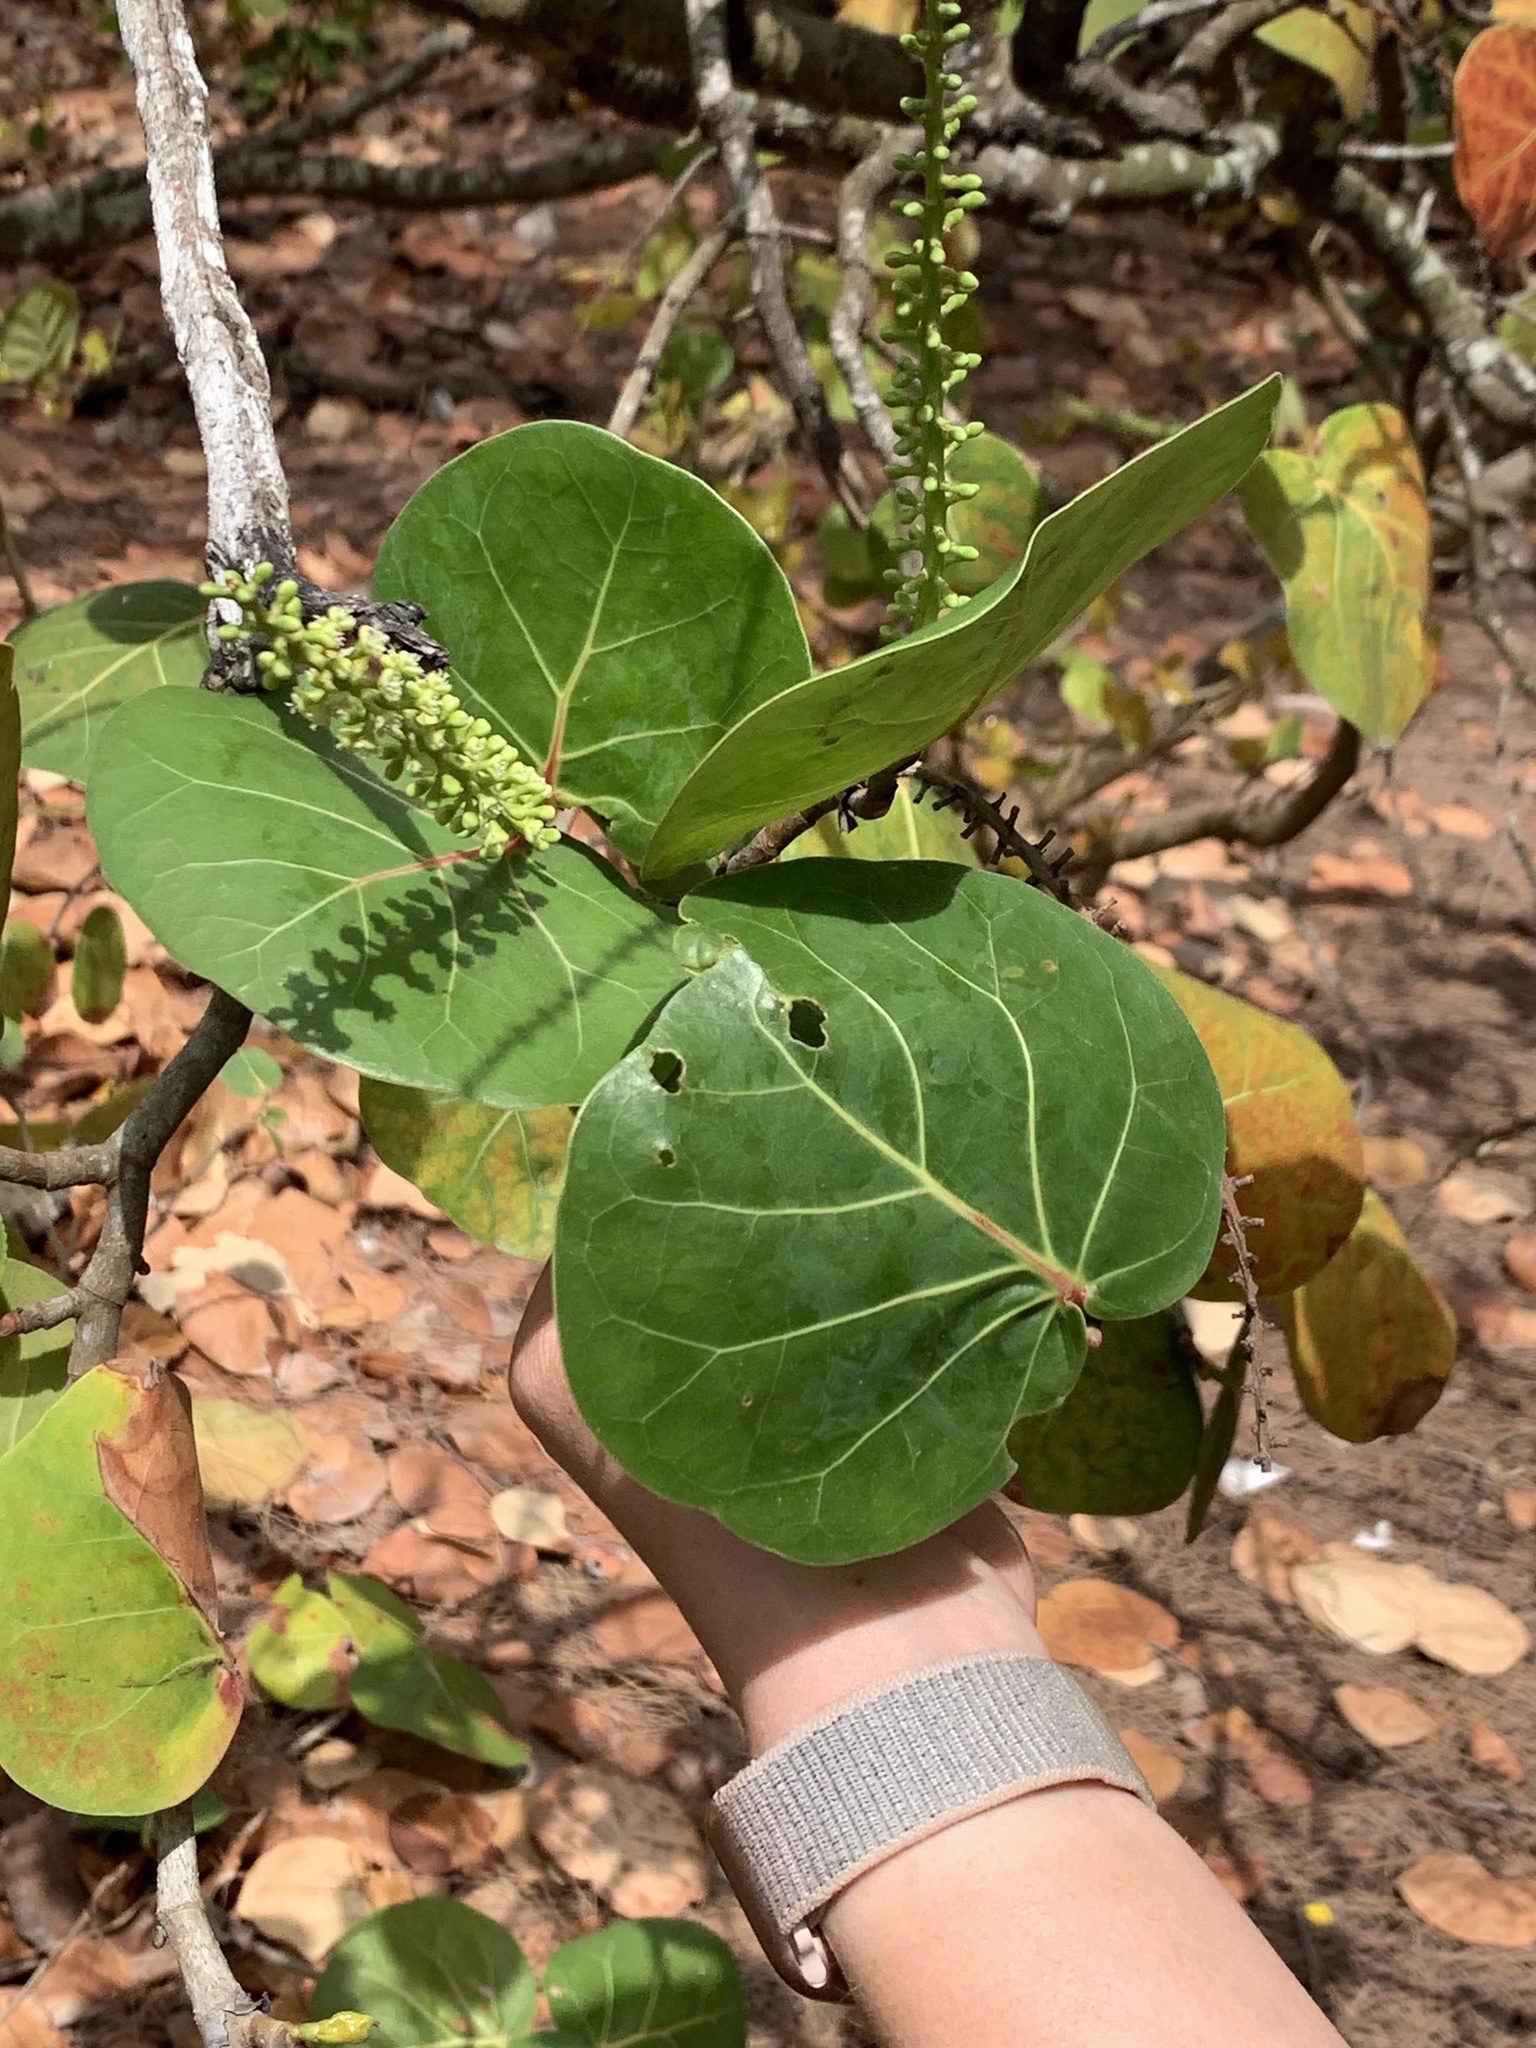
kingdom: Plantae
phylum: Tracheophyta
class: Magnoliopsida
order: Caryophyllales
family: Polygonaceae
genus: Coccoloba
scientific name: Coccoloba uvifera
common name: Seagrape
